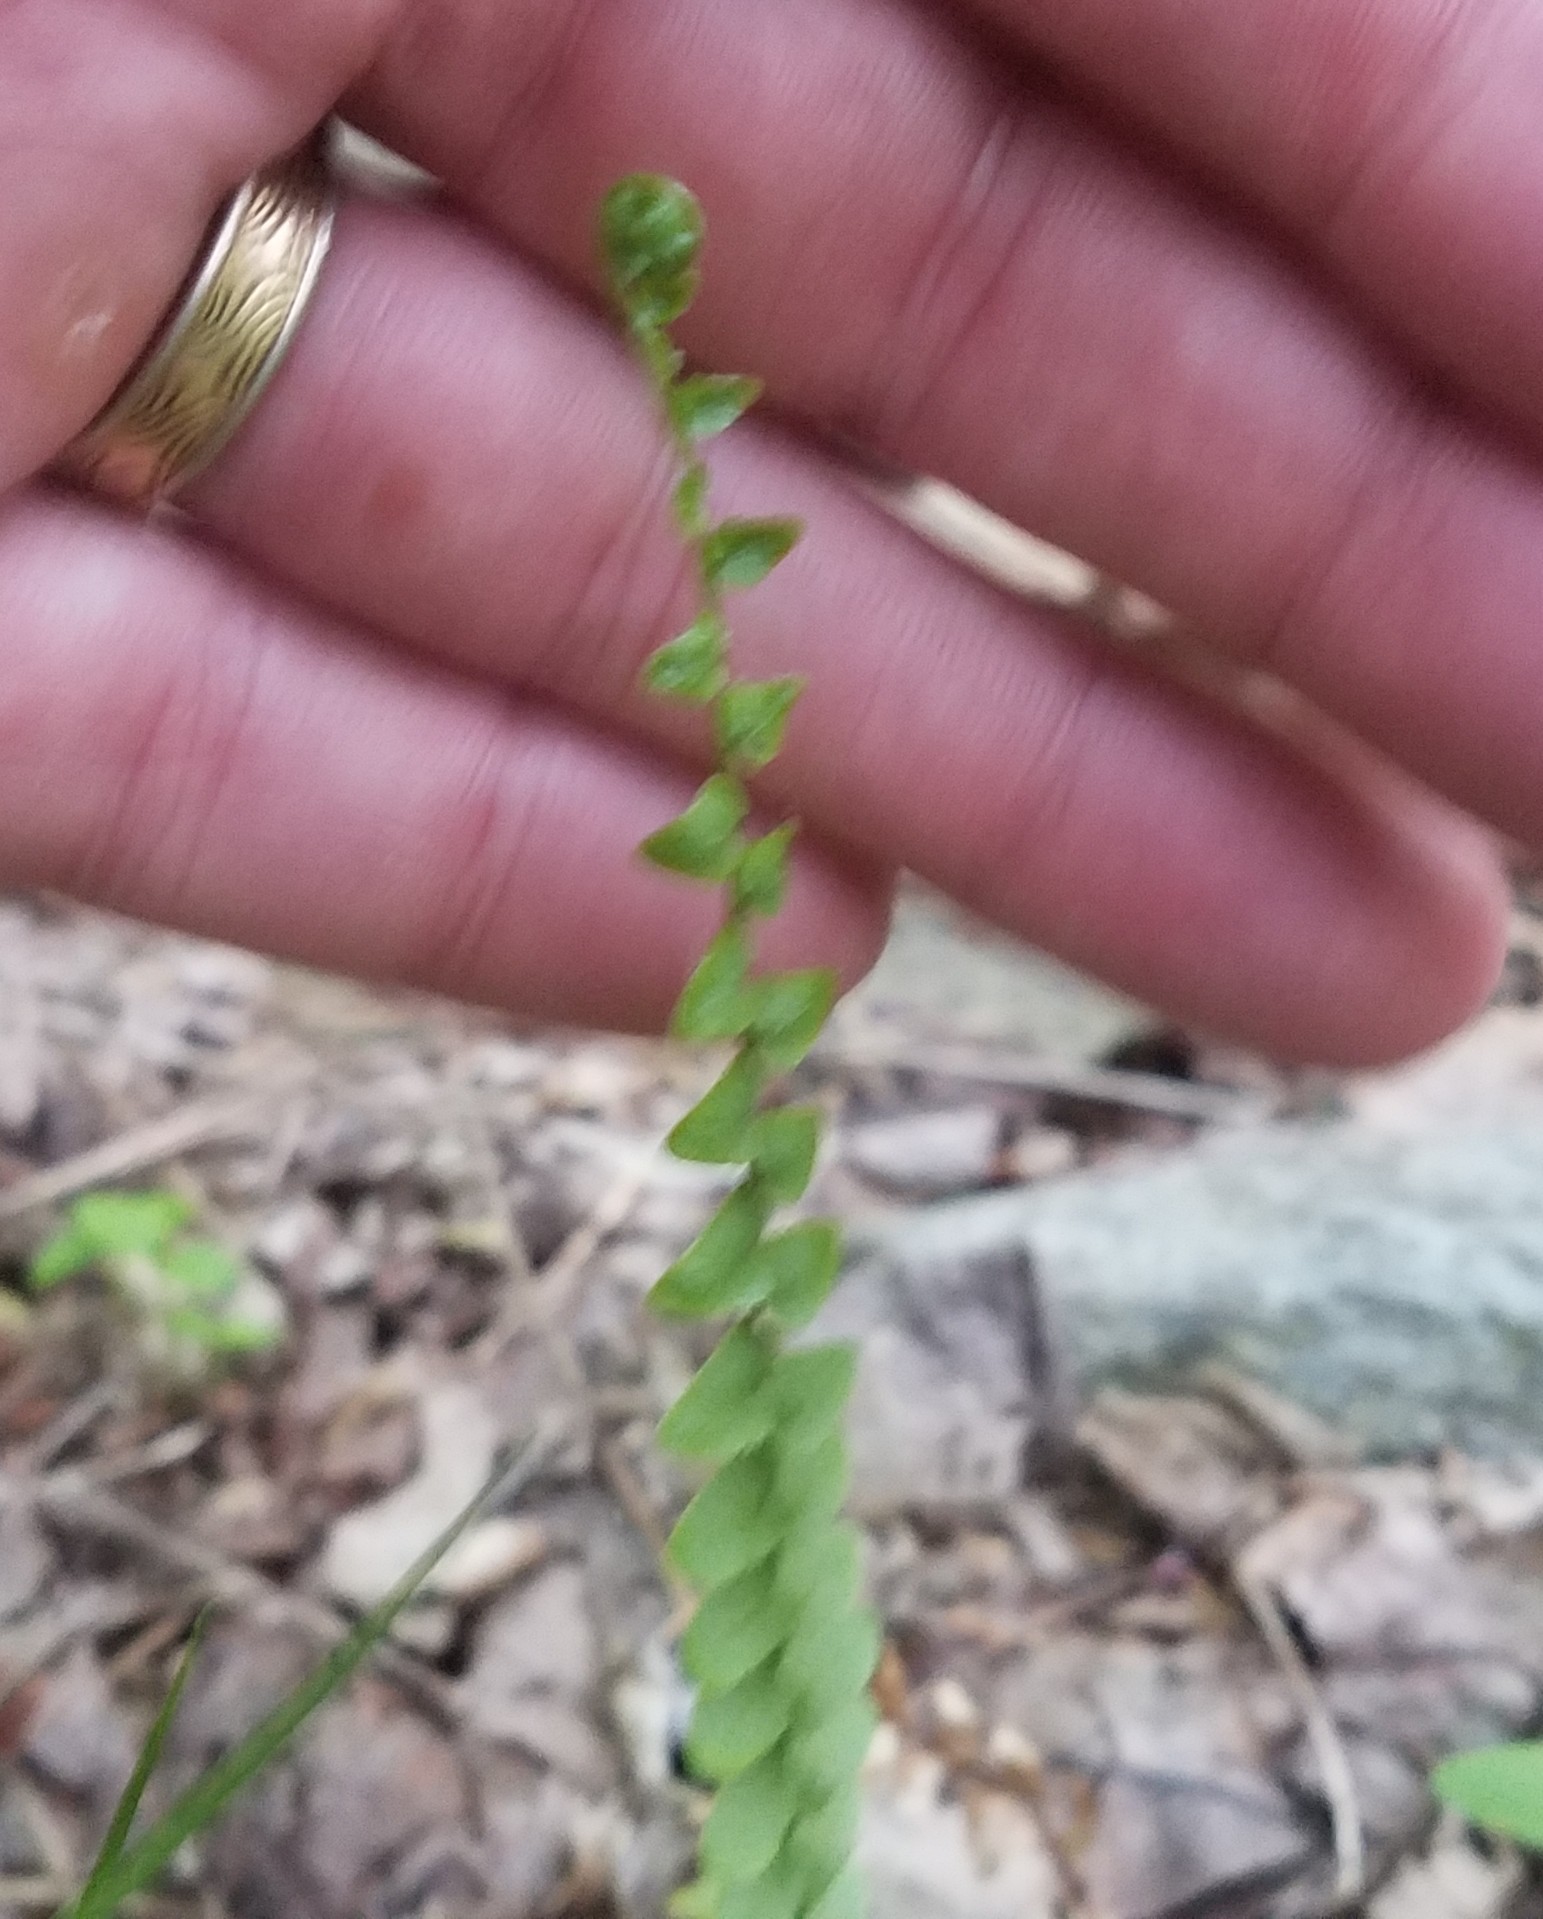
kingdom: Plantae
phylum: Tracheophyta
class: Polypodiopsida
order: Polypodiales
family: Aspleniaceae
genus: Asplenium
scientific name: Asplenium platyneuron
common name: Ebony spleenwort
